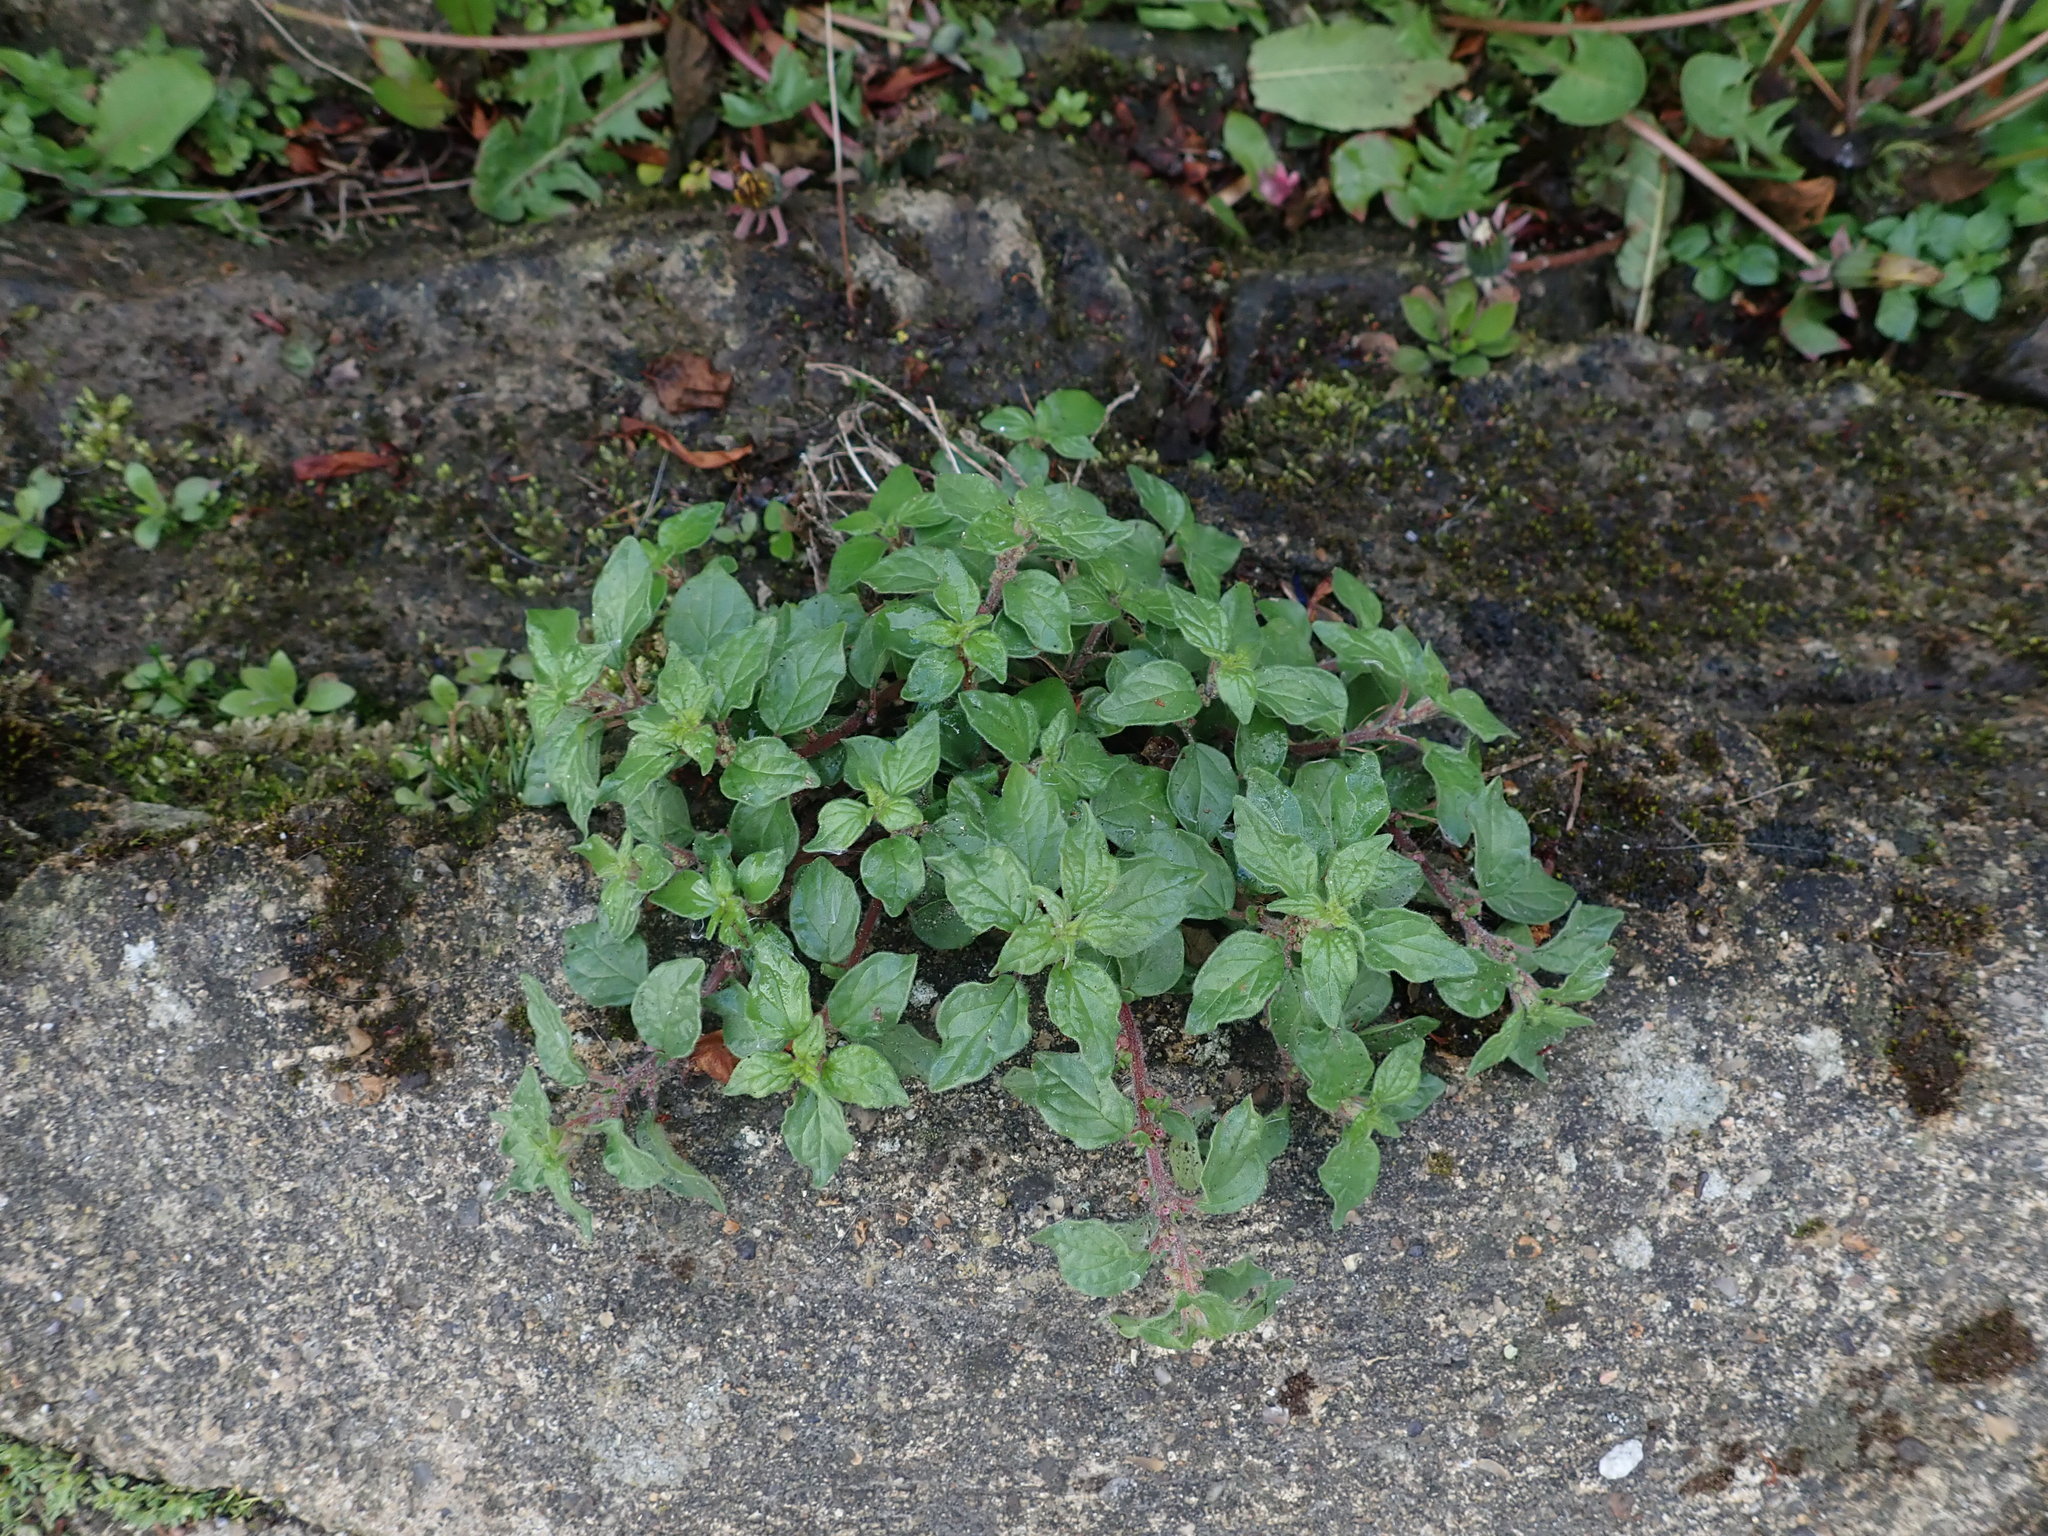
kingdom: Plantae
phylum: Tracheophyta
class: Magnoliopsida
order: Rosales
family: Urticaceae
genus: Parietaria
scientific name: Parietaria judaica
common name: Pellitory-of-the-wall
